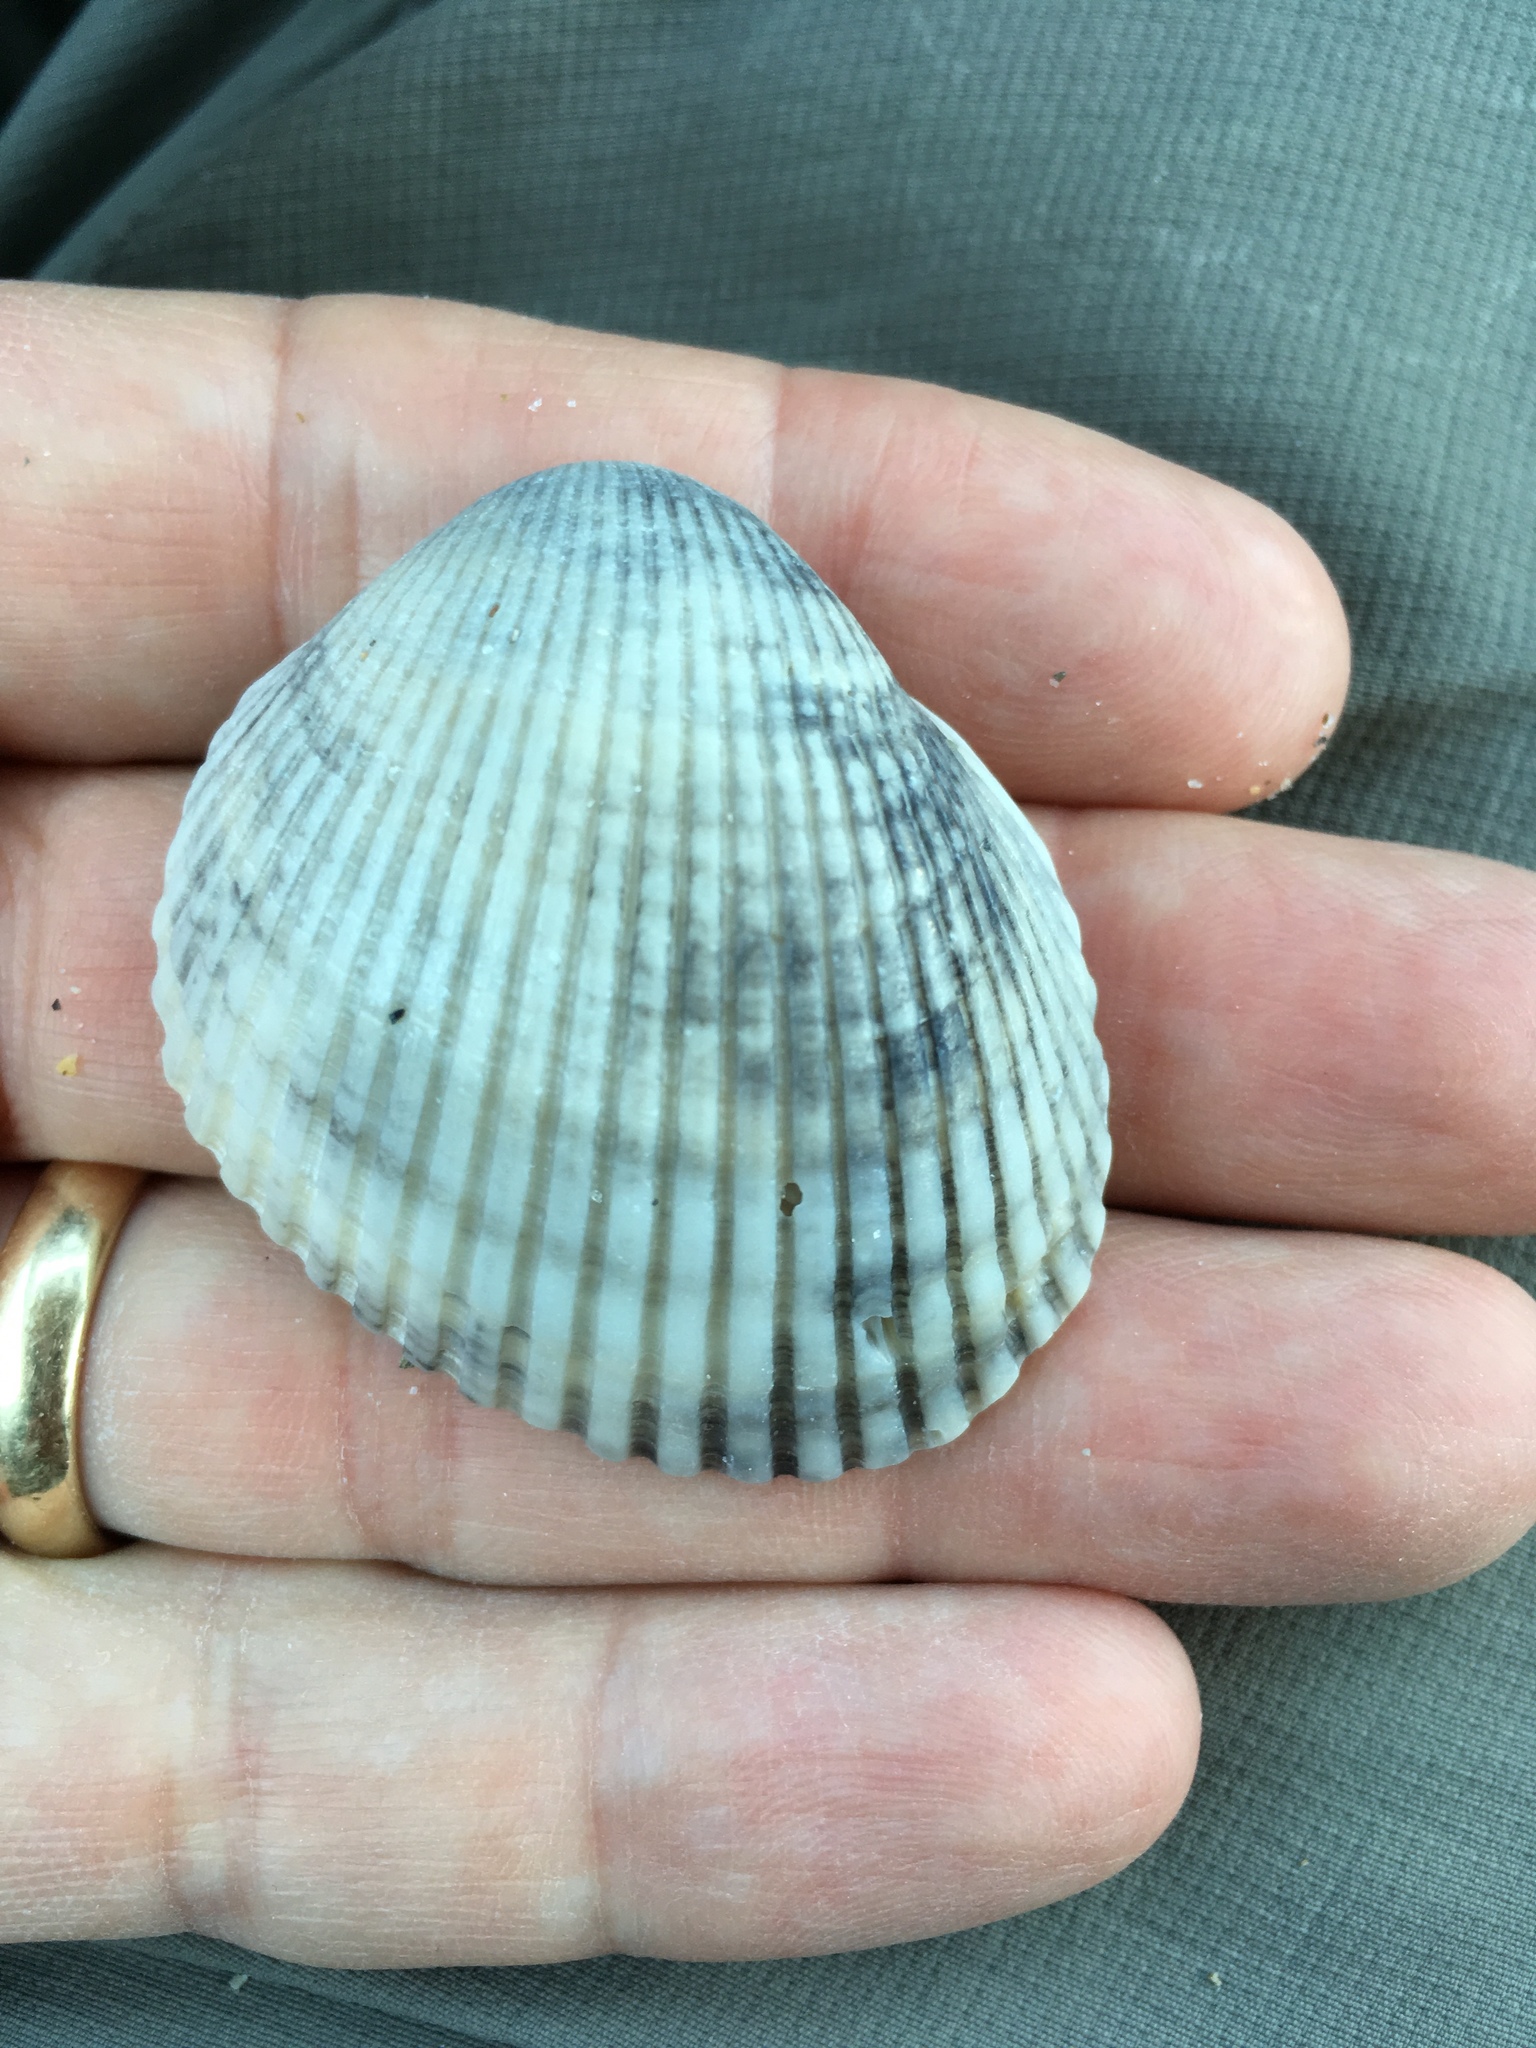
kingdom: Animalia
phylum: Mollusca
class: Bivalvia
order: Arcida
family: Arcidae
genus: Lunarca
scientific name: Lunarca ovalis
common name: Blood ark
